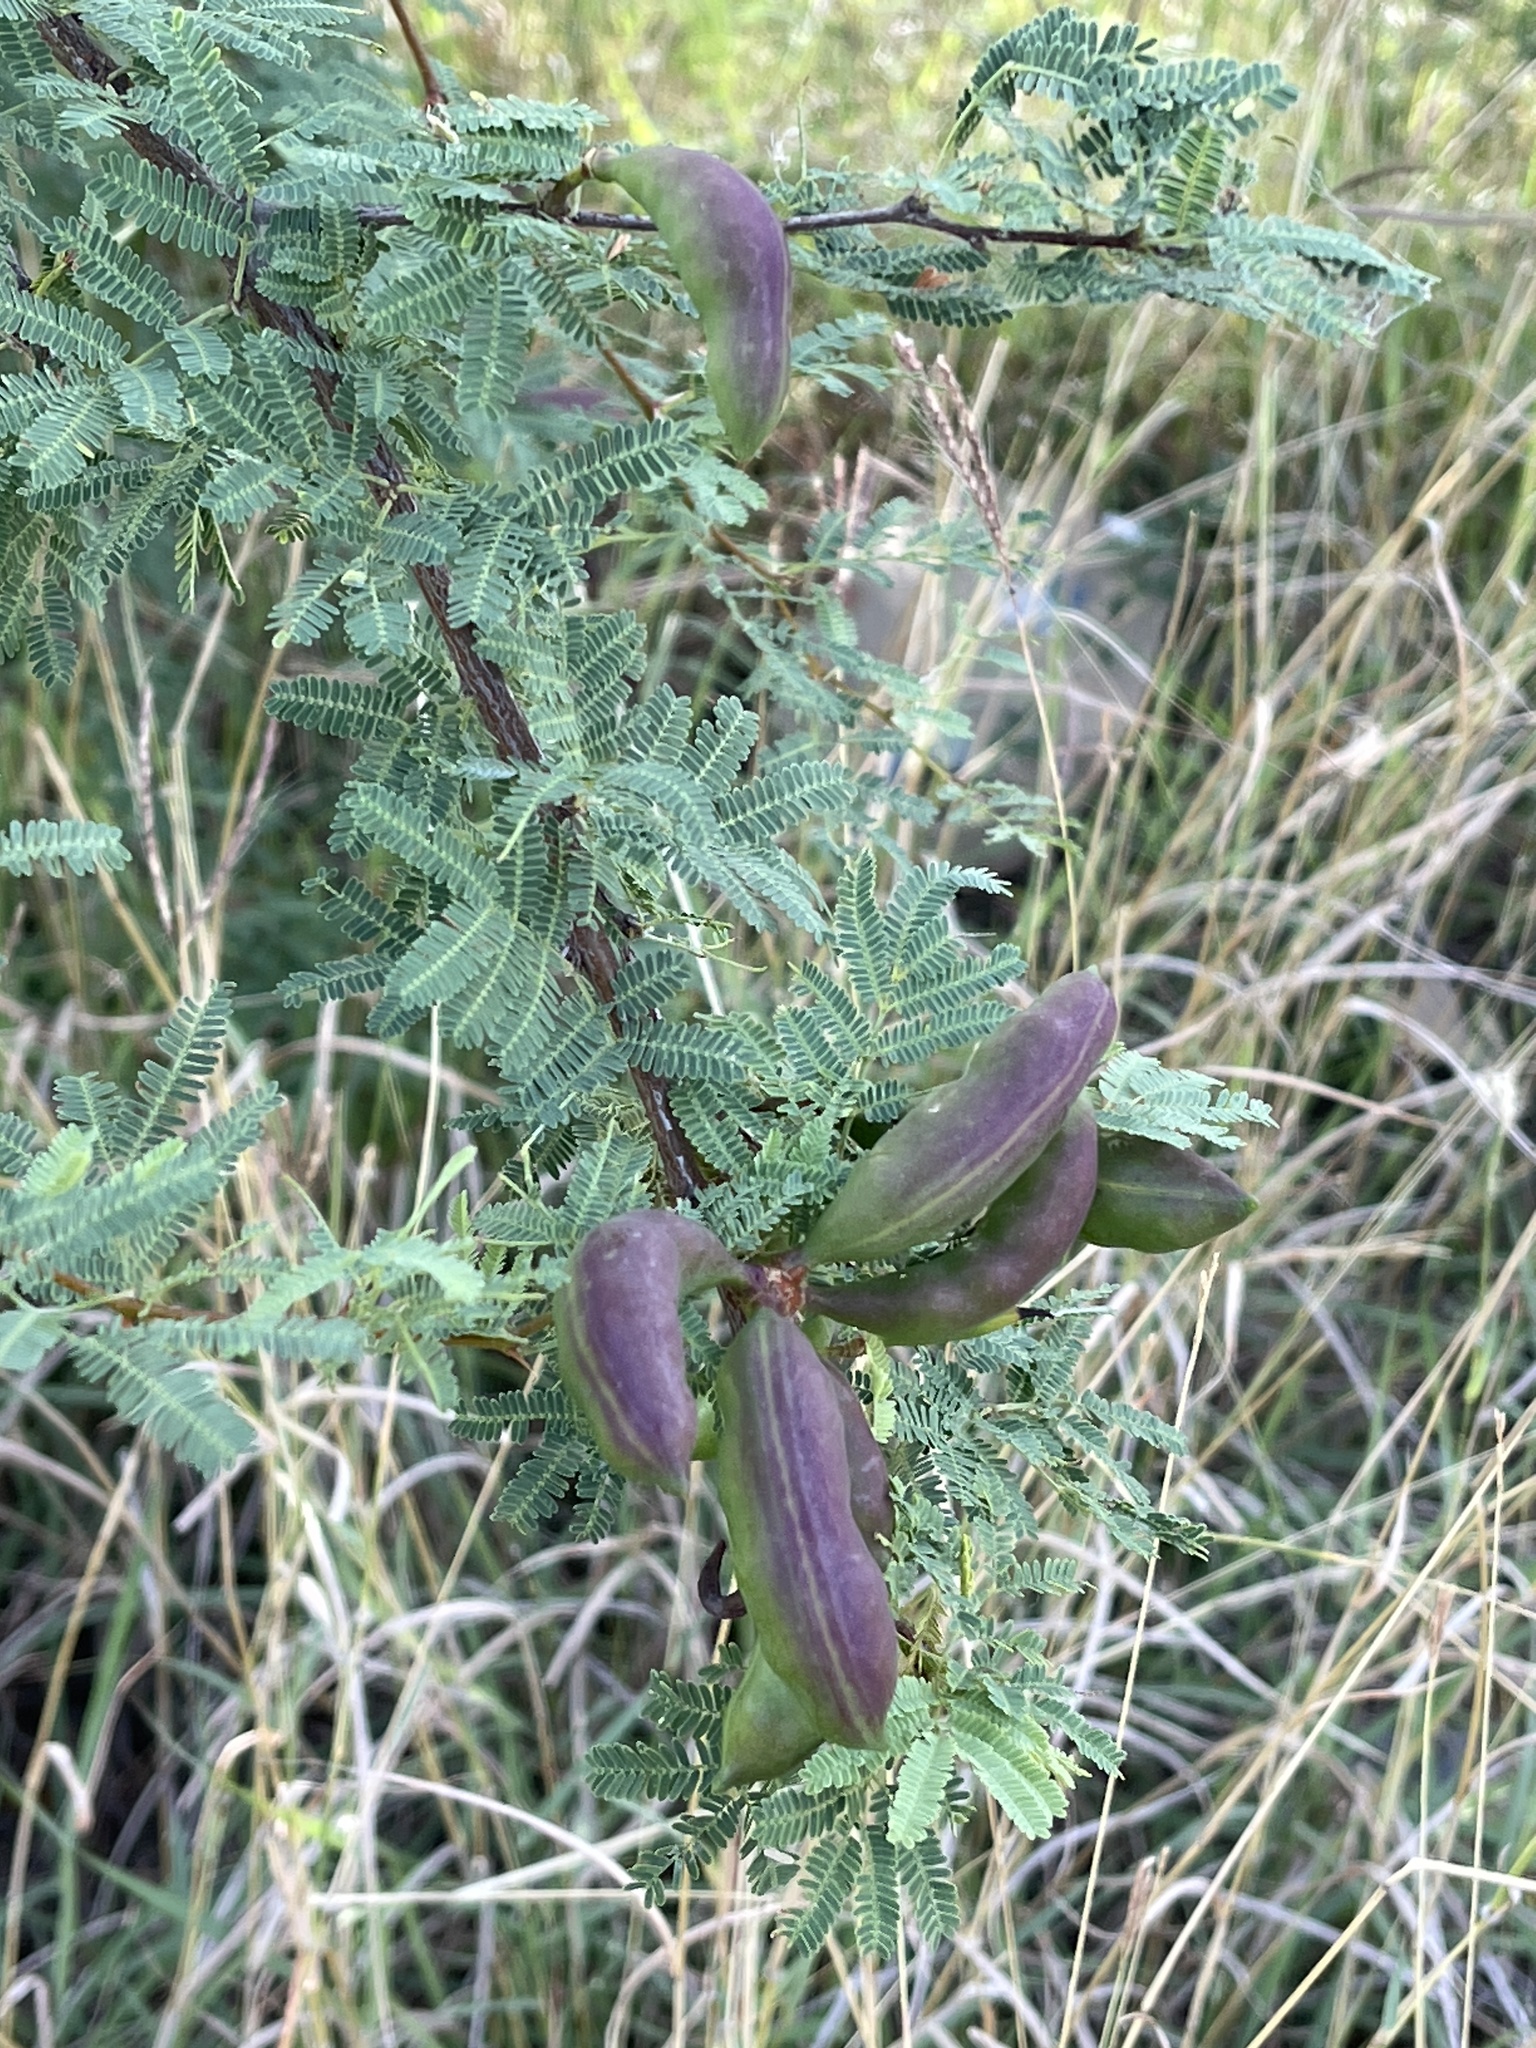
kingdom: Plantae
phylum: Tracheophyta
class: Magnoliopsida
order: Fabales
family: Fabaceae
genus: Vachellia
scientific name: Vachellia farnesiana
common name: Sweet acacia
